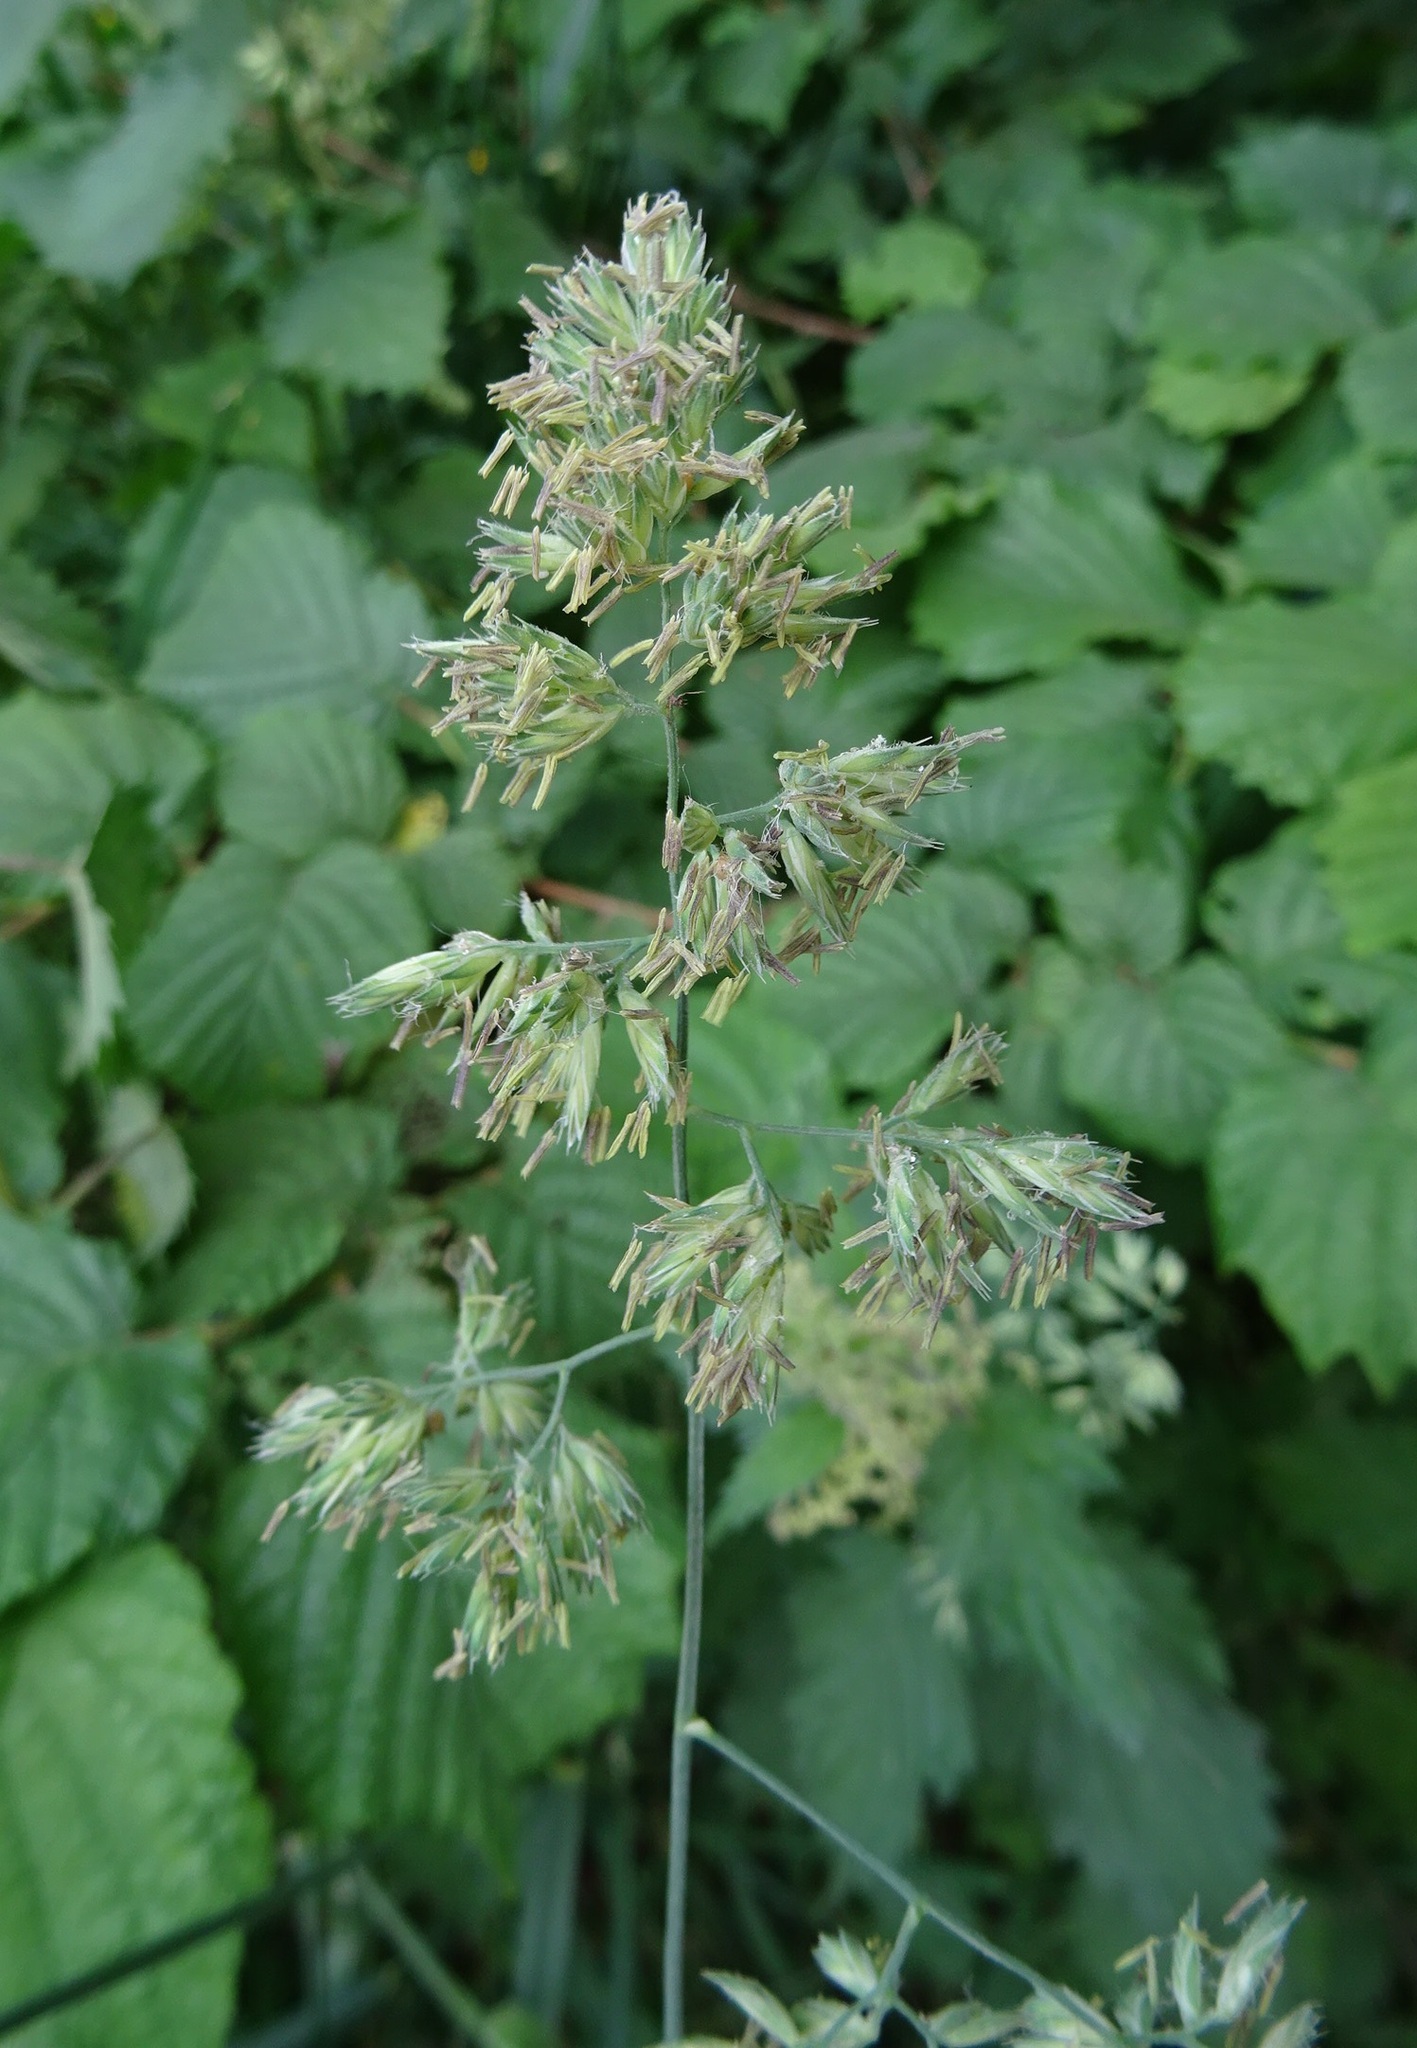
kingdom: Plantae
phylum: Tracheophyta
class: Liliopsida
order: Poales
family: Poaceae
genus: Dactylis
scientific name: Dactylis glomerata
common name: Orchardgrass
